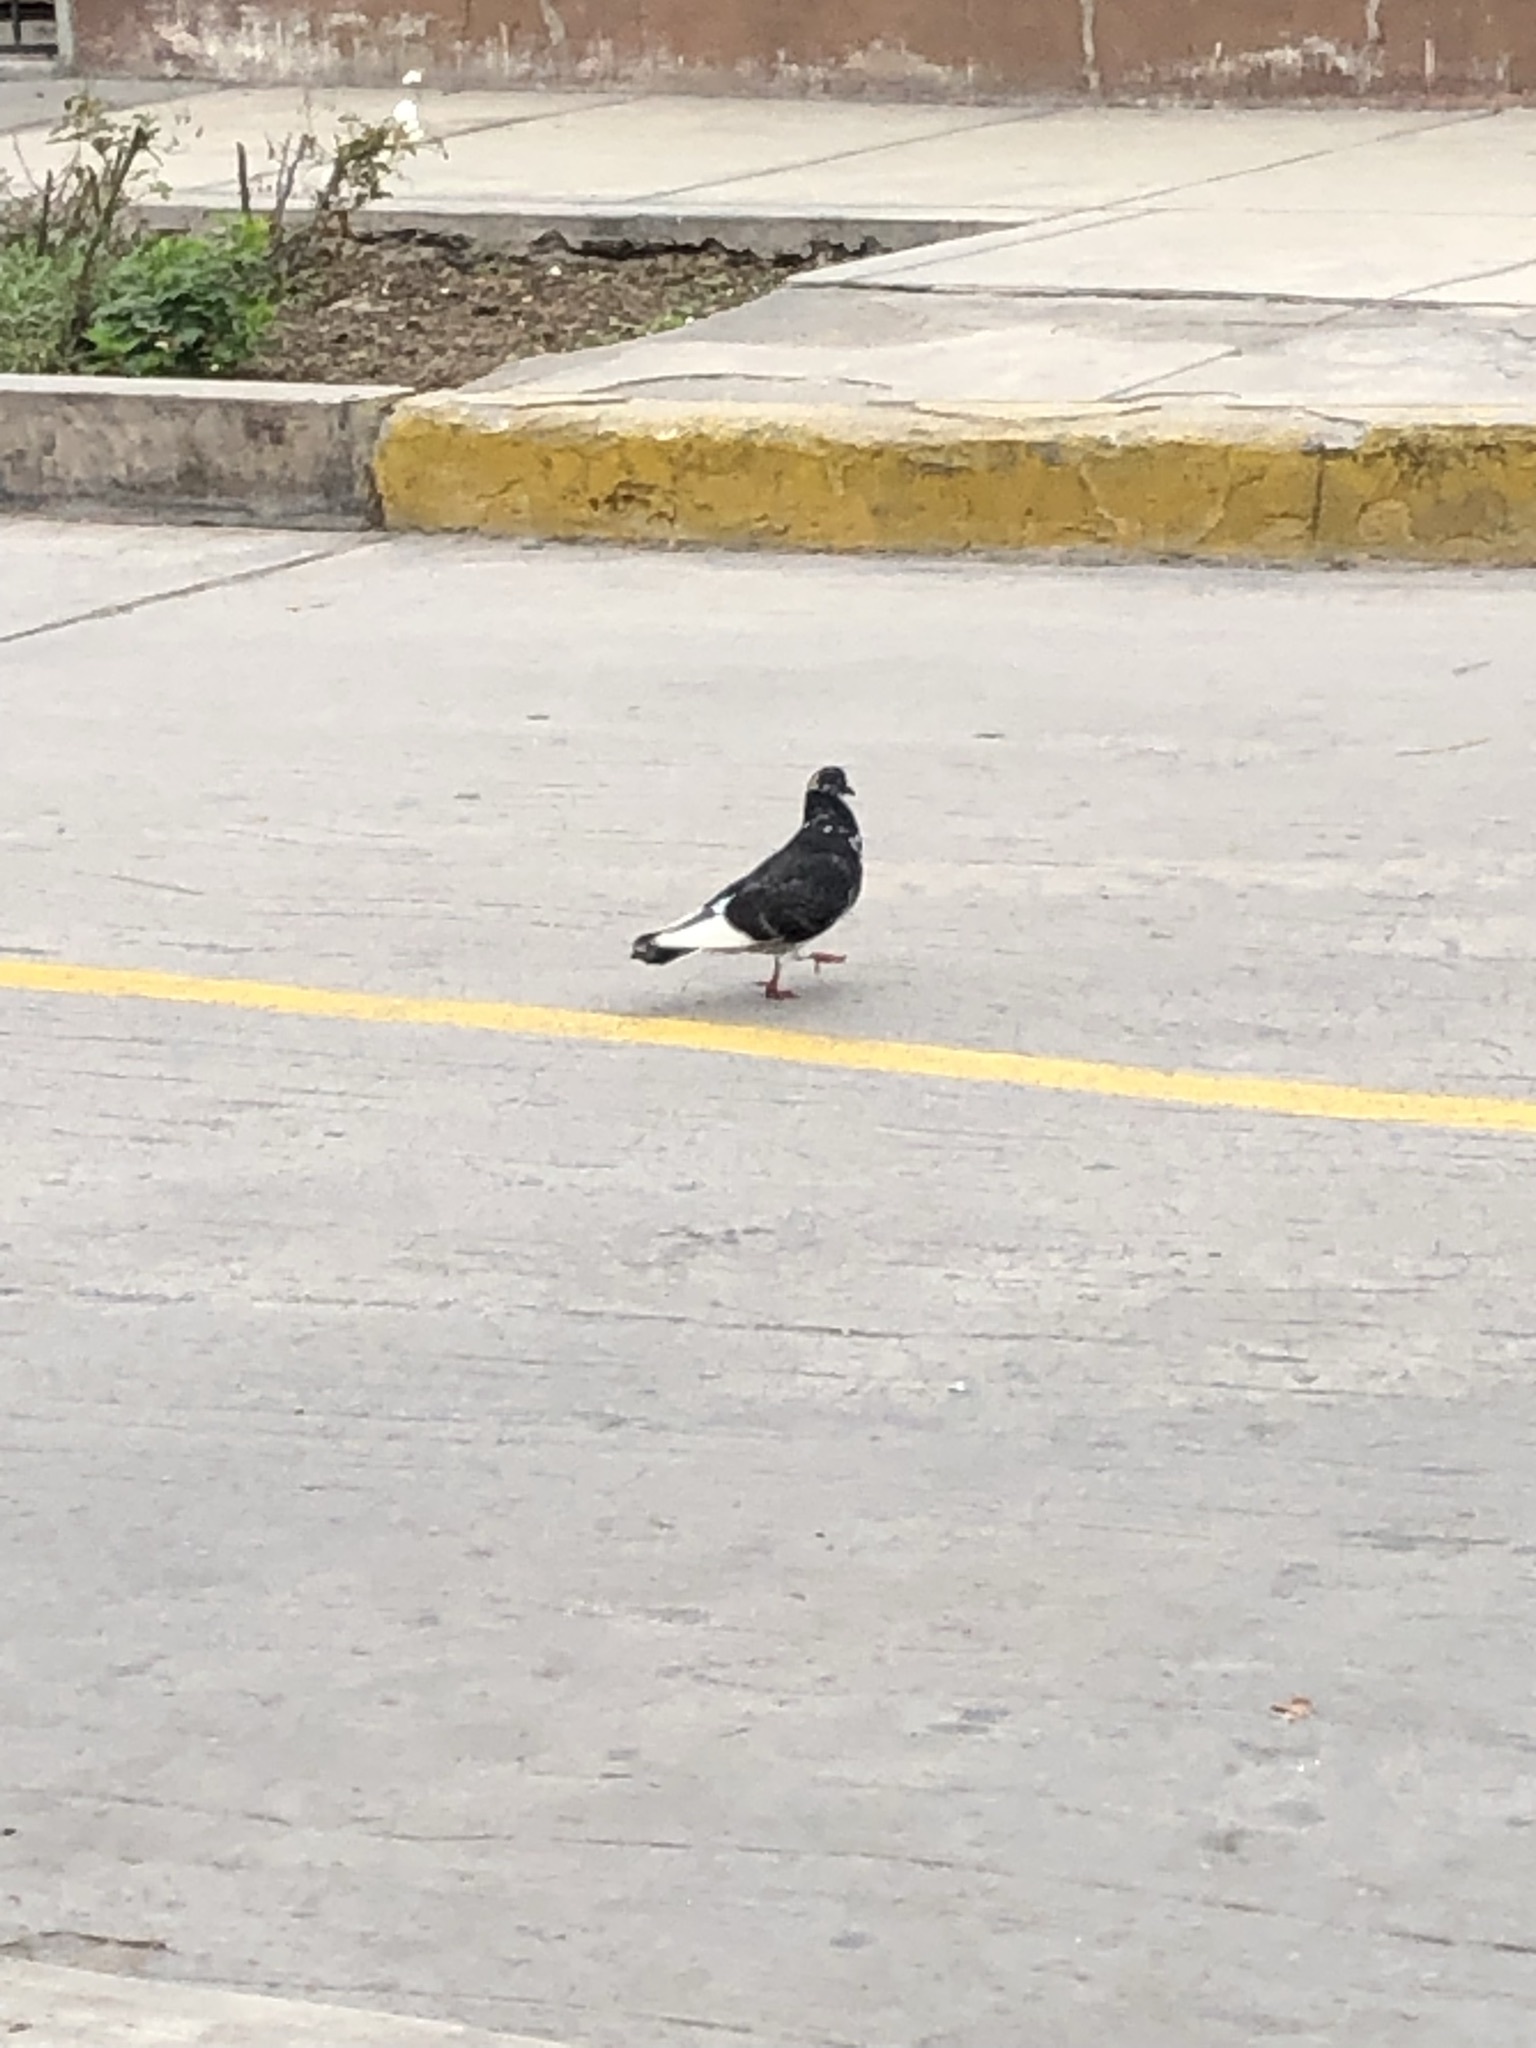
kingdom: Animalia
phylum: Chordata
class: Aves
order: Columbiformes
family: Columbidae
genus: Columba
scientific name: Columba livia
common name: Rock pigeon
